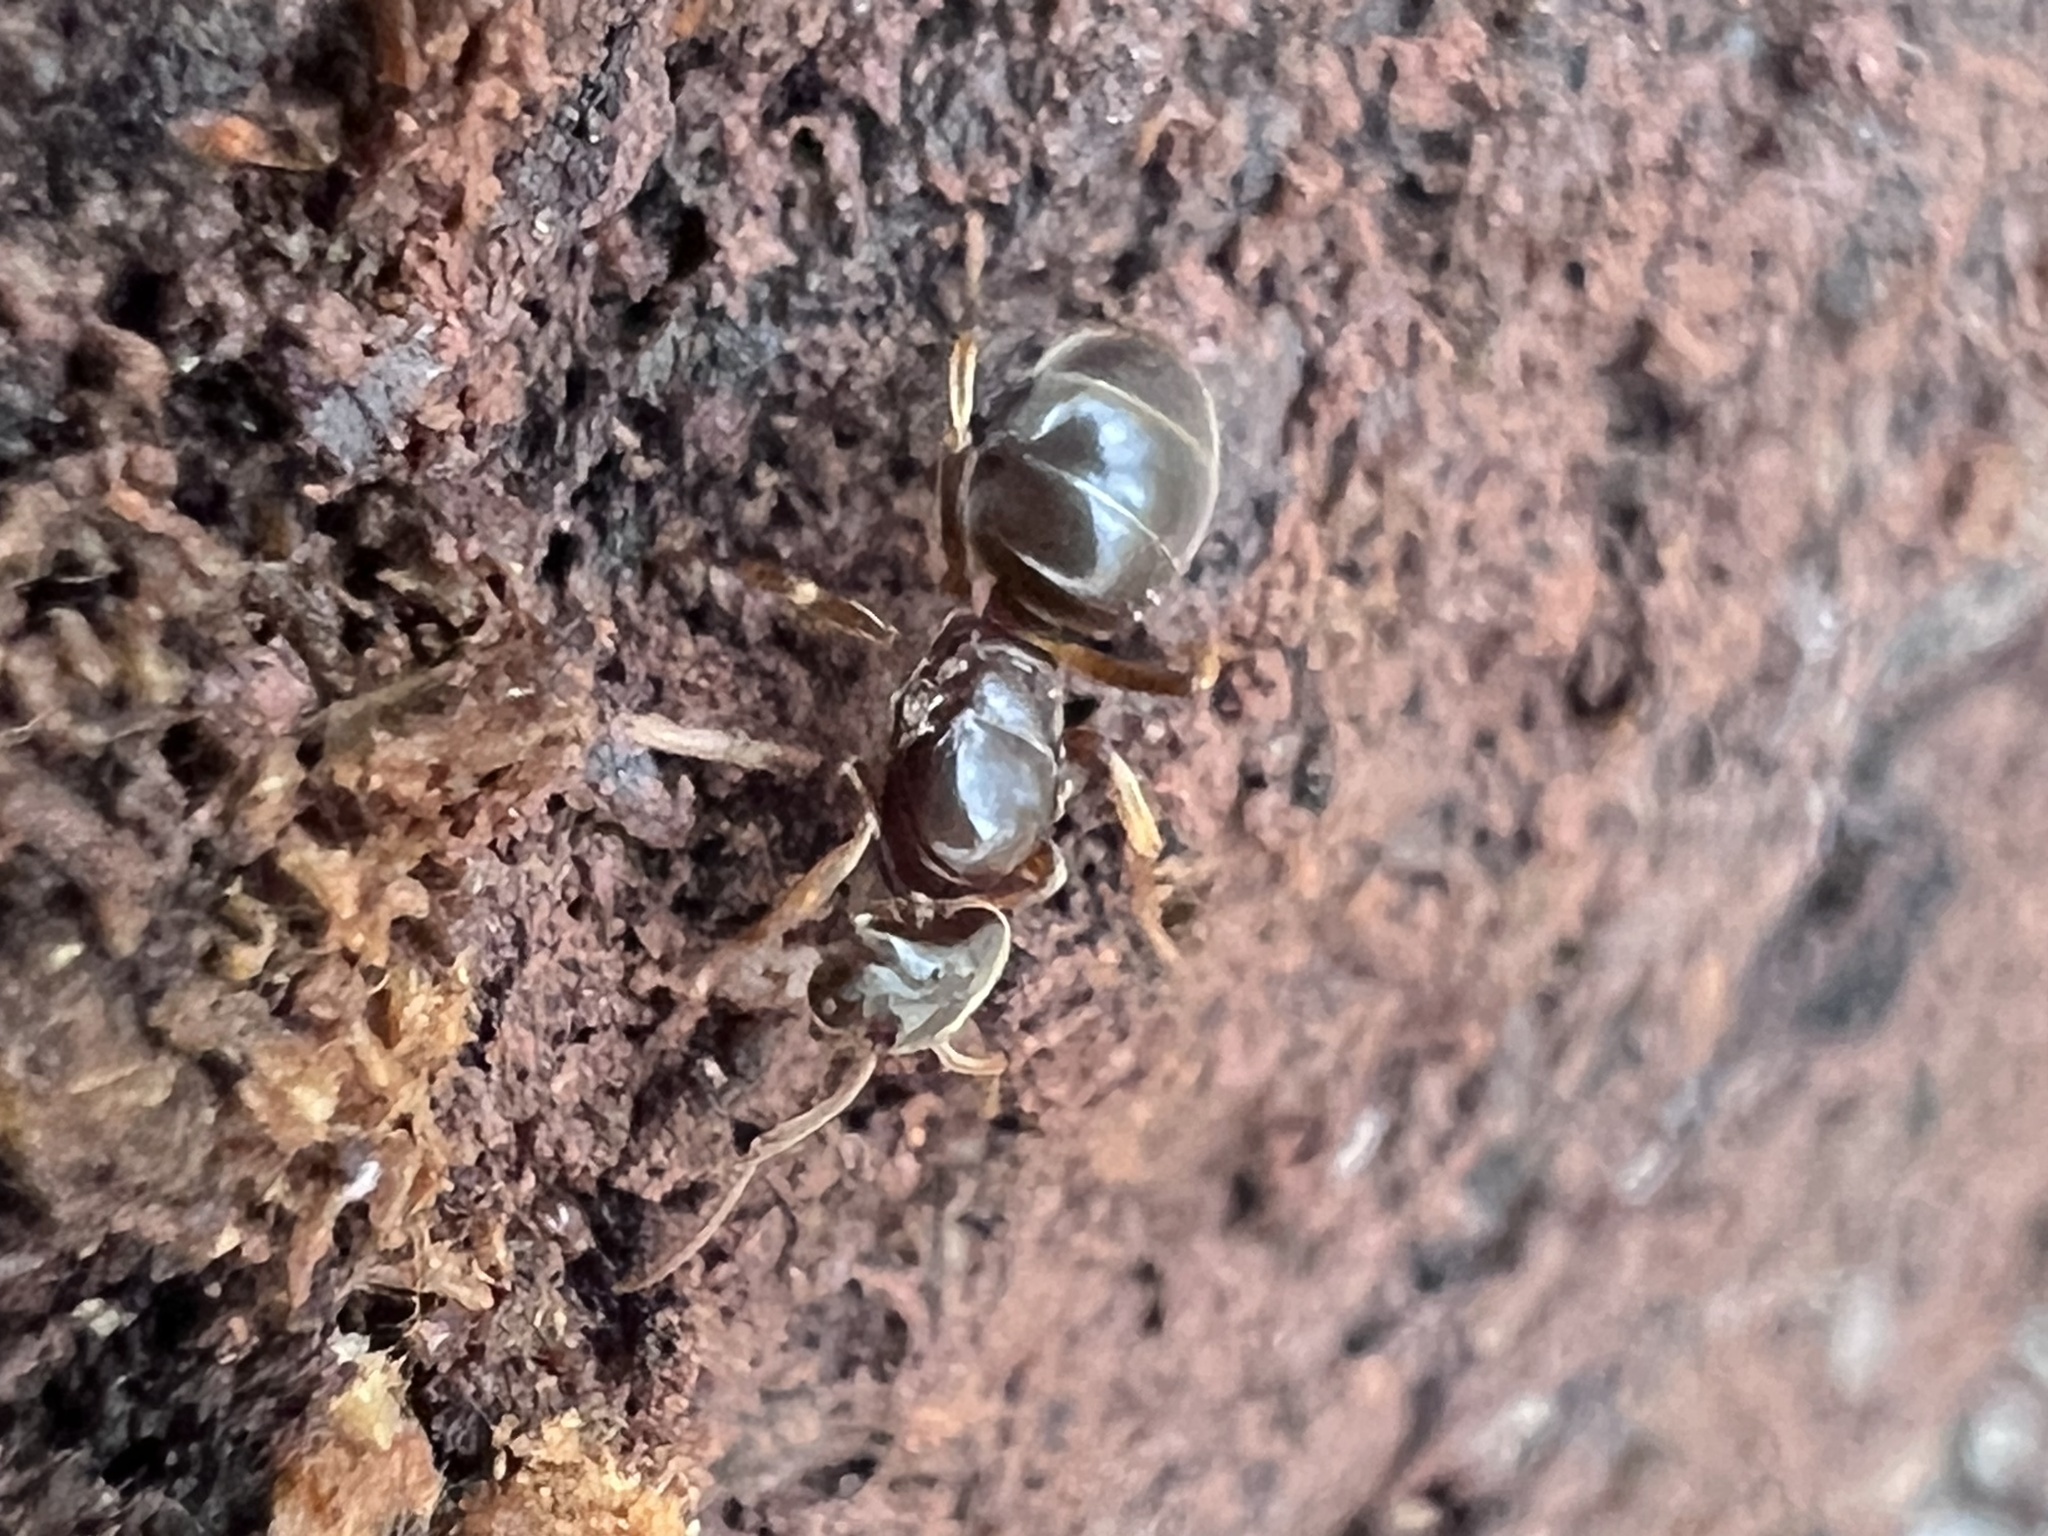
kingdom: Animalia
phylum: Arthropoda
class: Insecta
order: Hymenoptera
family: Formicidae
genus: Lasius
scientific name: Lasius aphidicola
